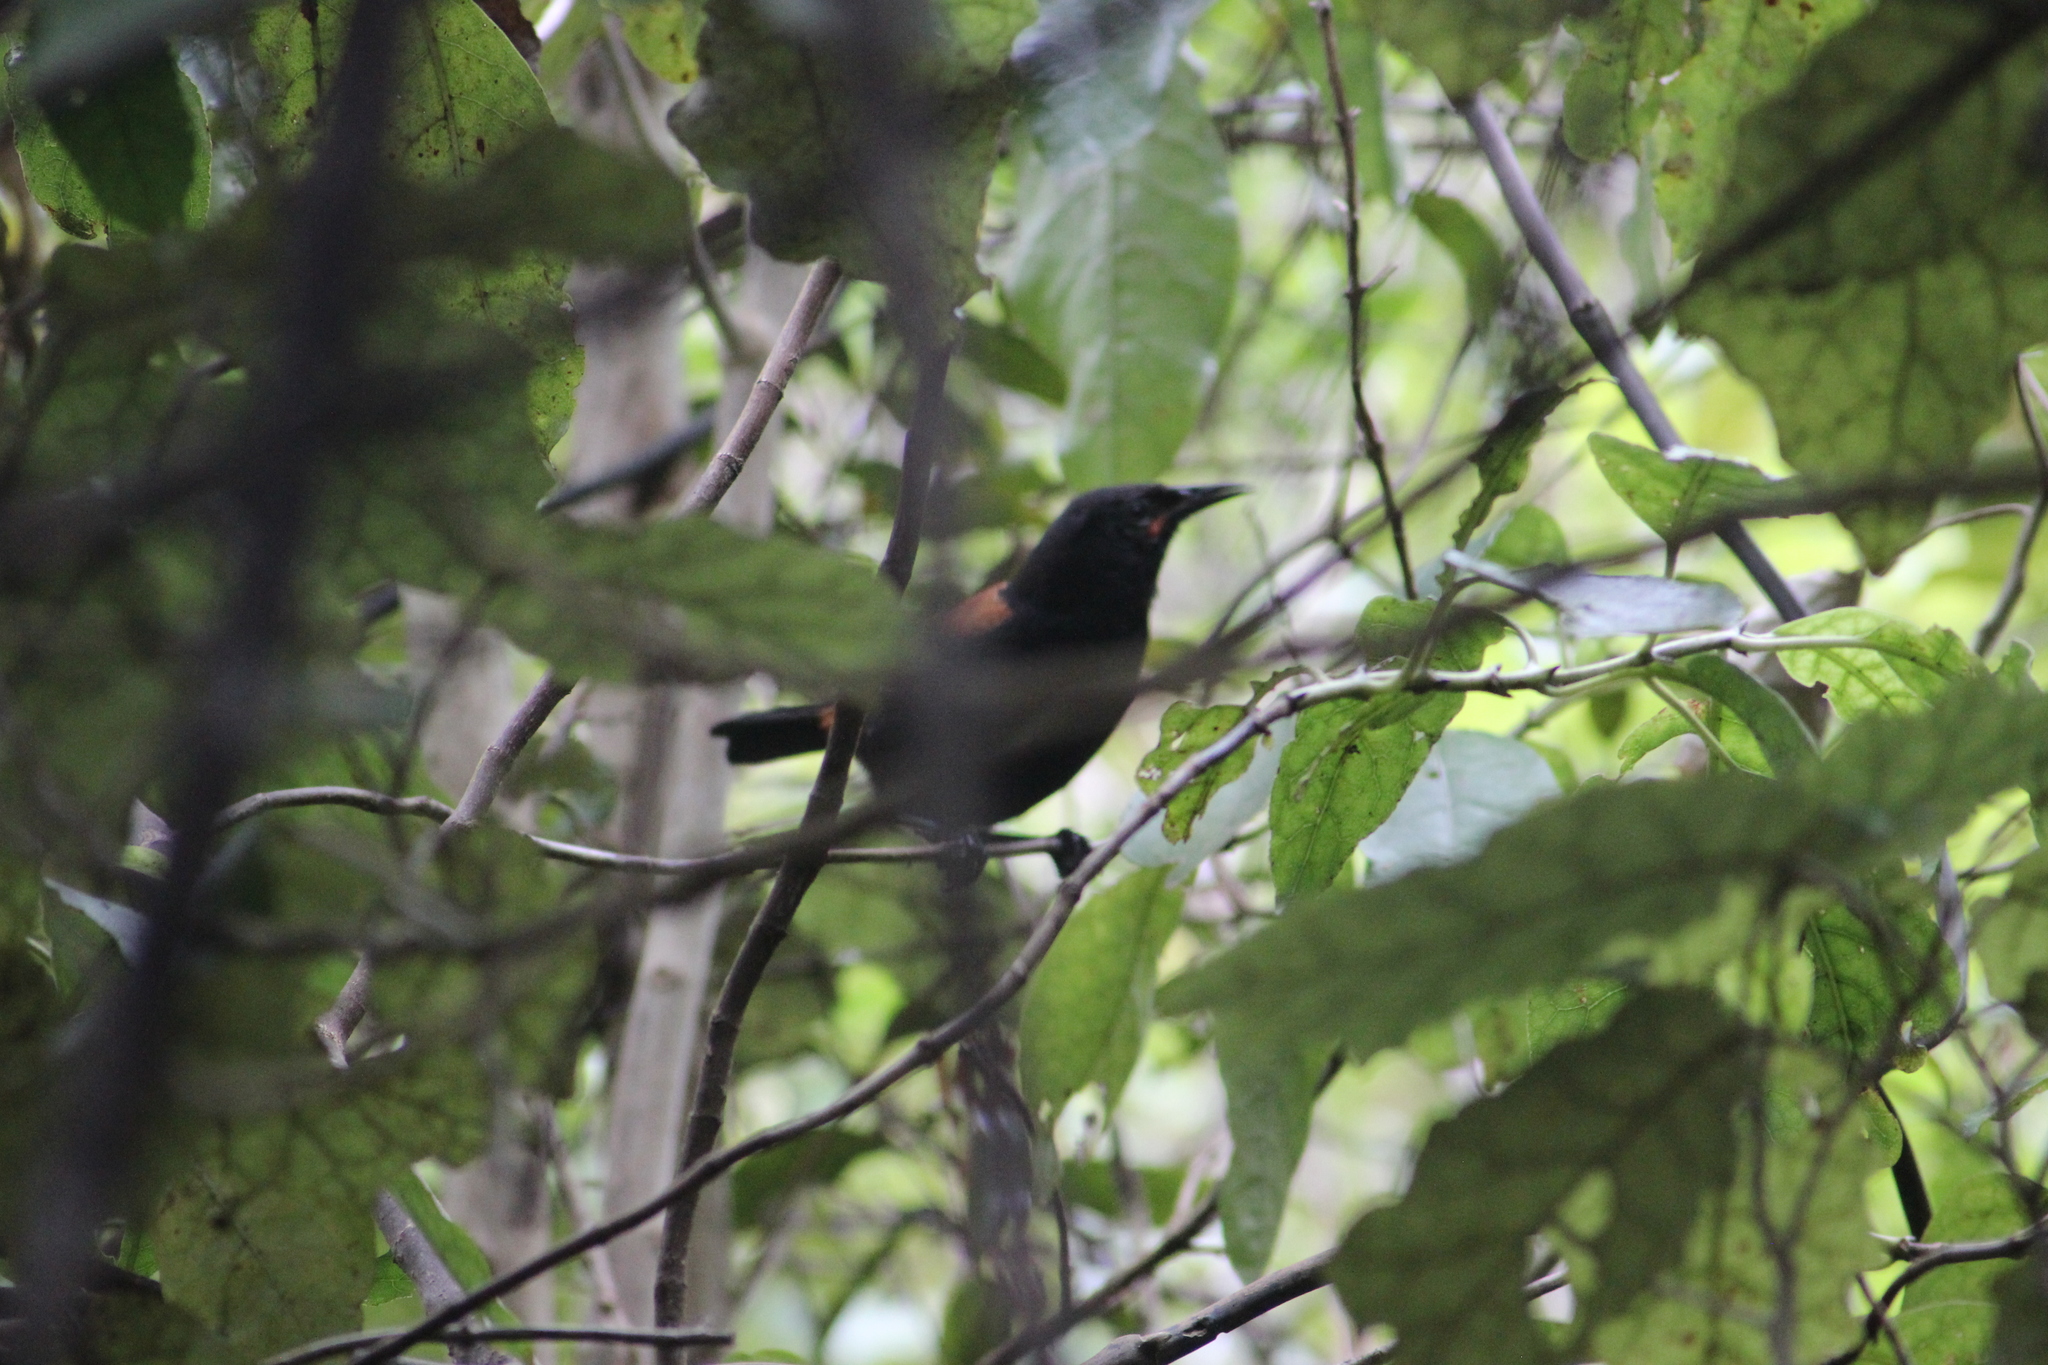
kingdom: Animalia
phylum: Chordata
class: Aves
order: Passeriformes
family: Callaeatidae
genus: Philesturnus
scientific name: Philesturnus carunculatus
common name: South island saddleback
